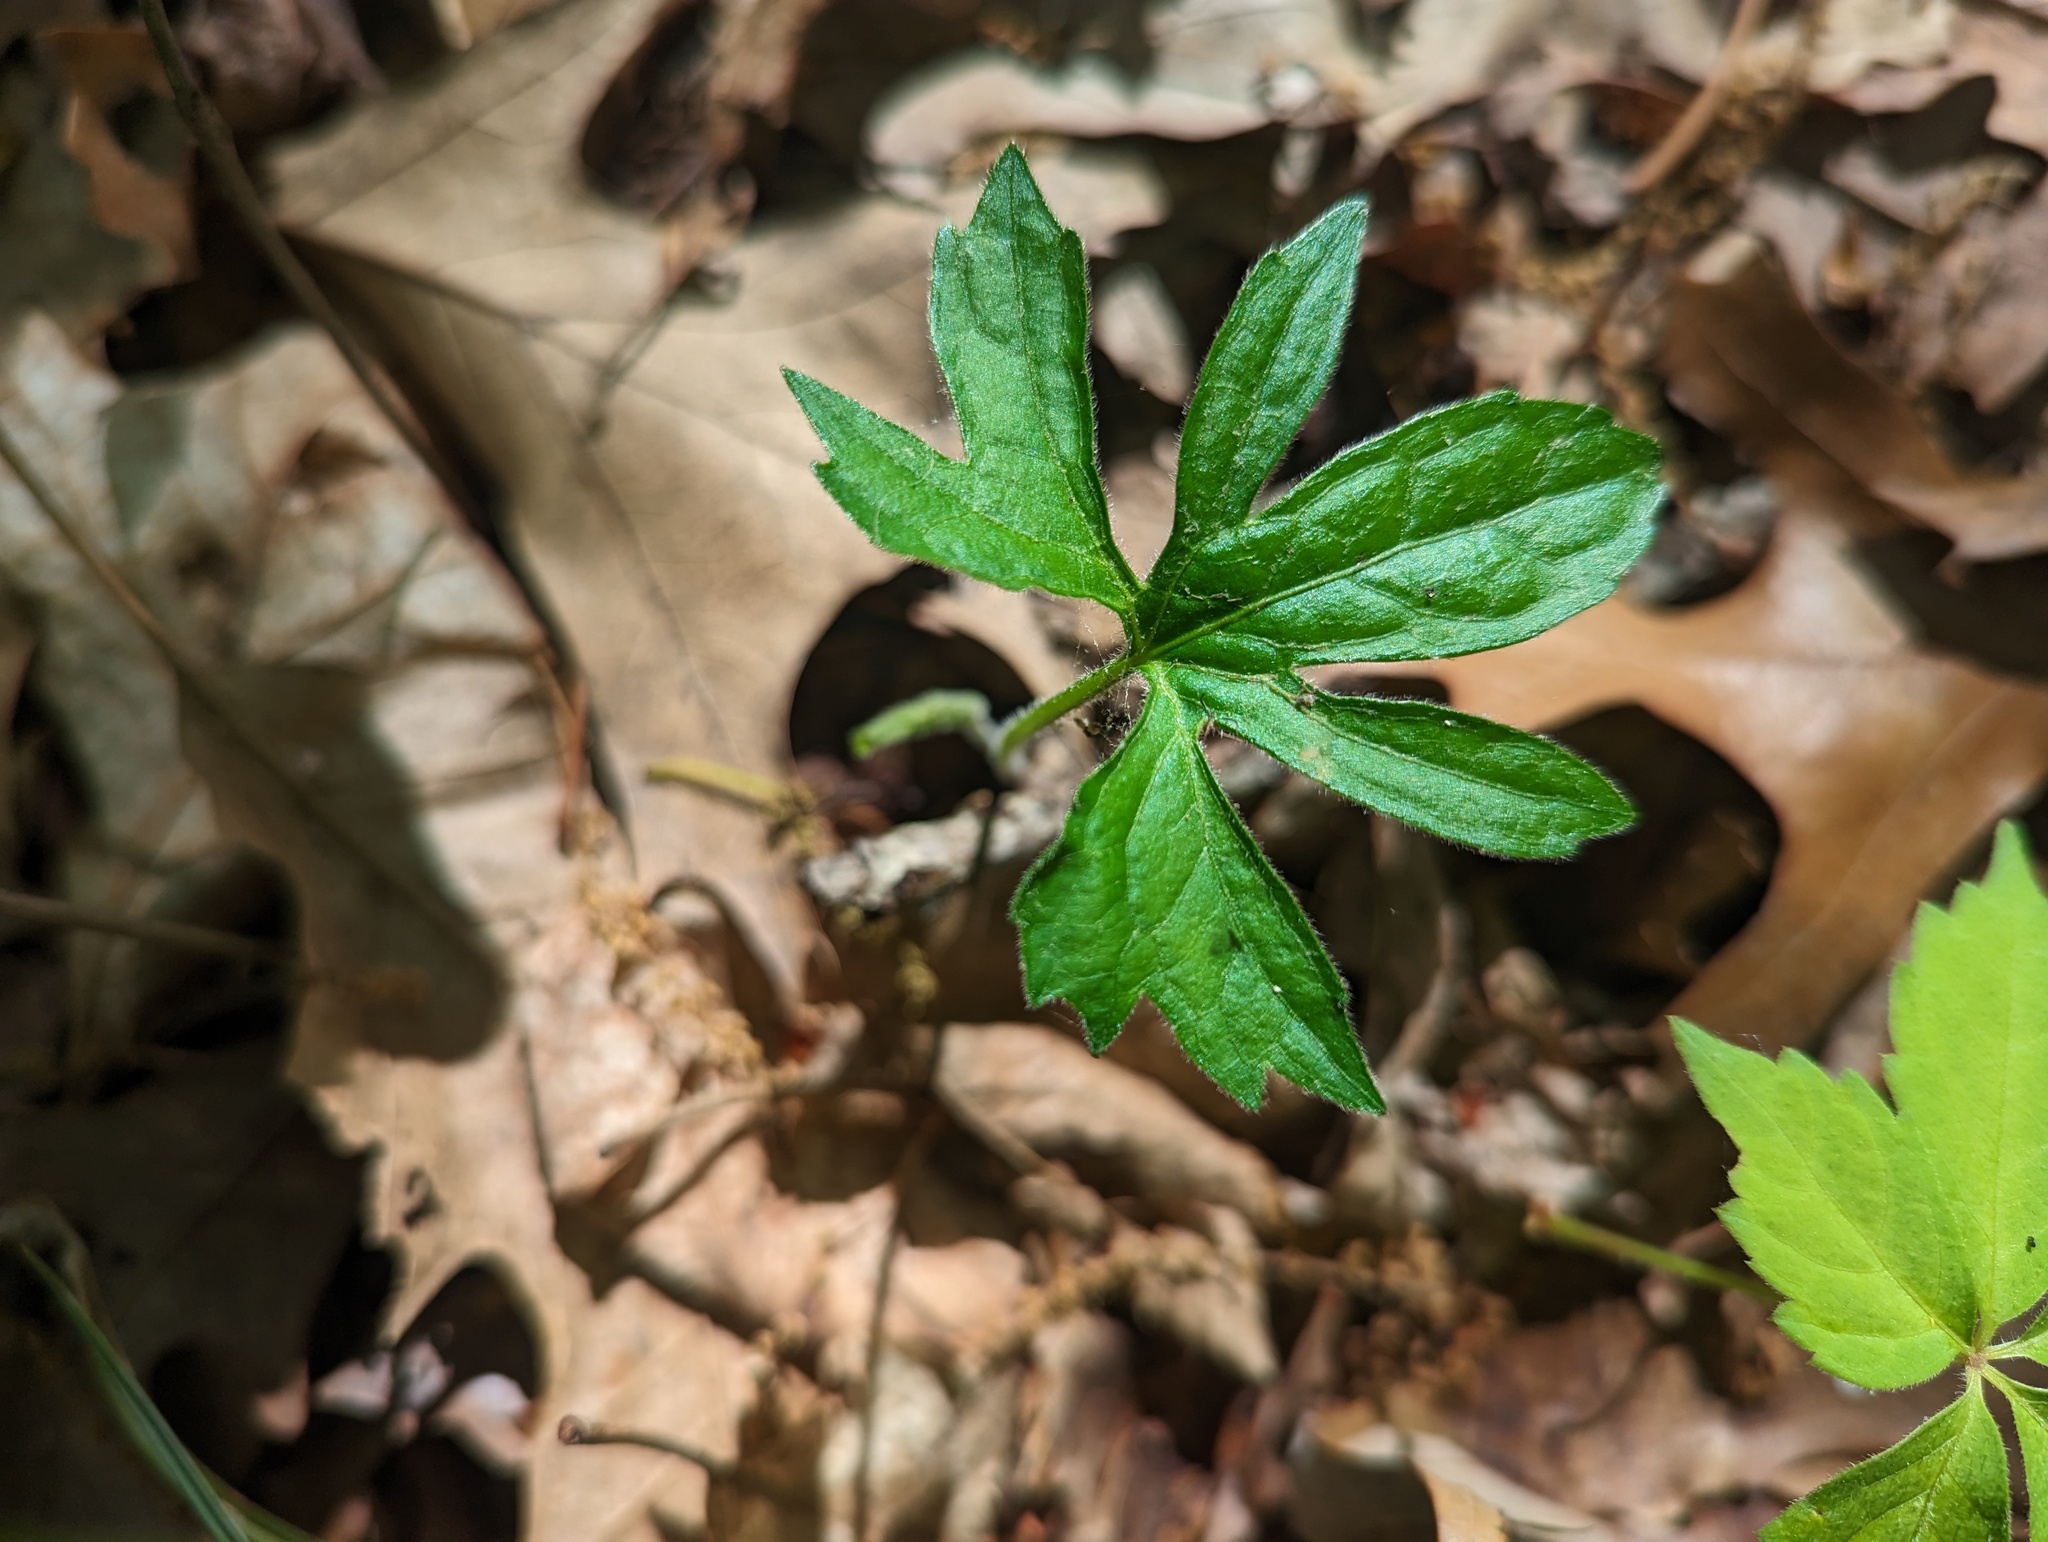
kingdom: Plantae
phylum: Tracheophyta
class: Magnoliopsida
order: Malpighiales
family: Violaceae
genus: Viola
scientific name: Viola palmata
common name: Early blue violet
